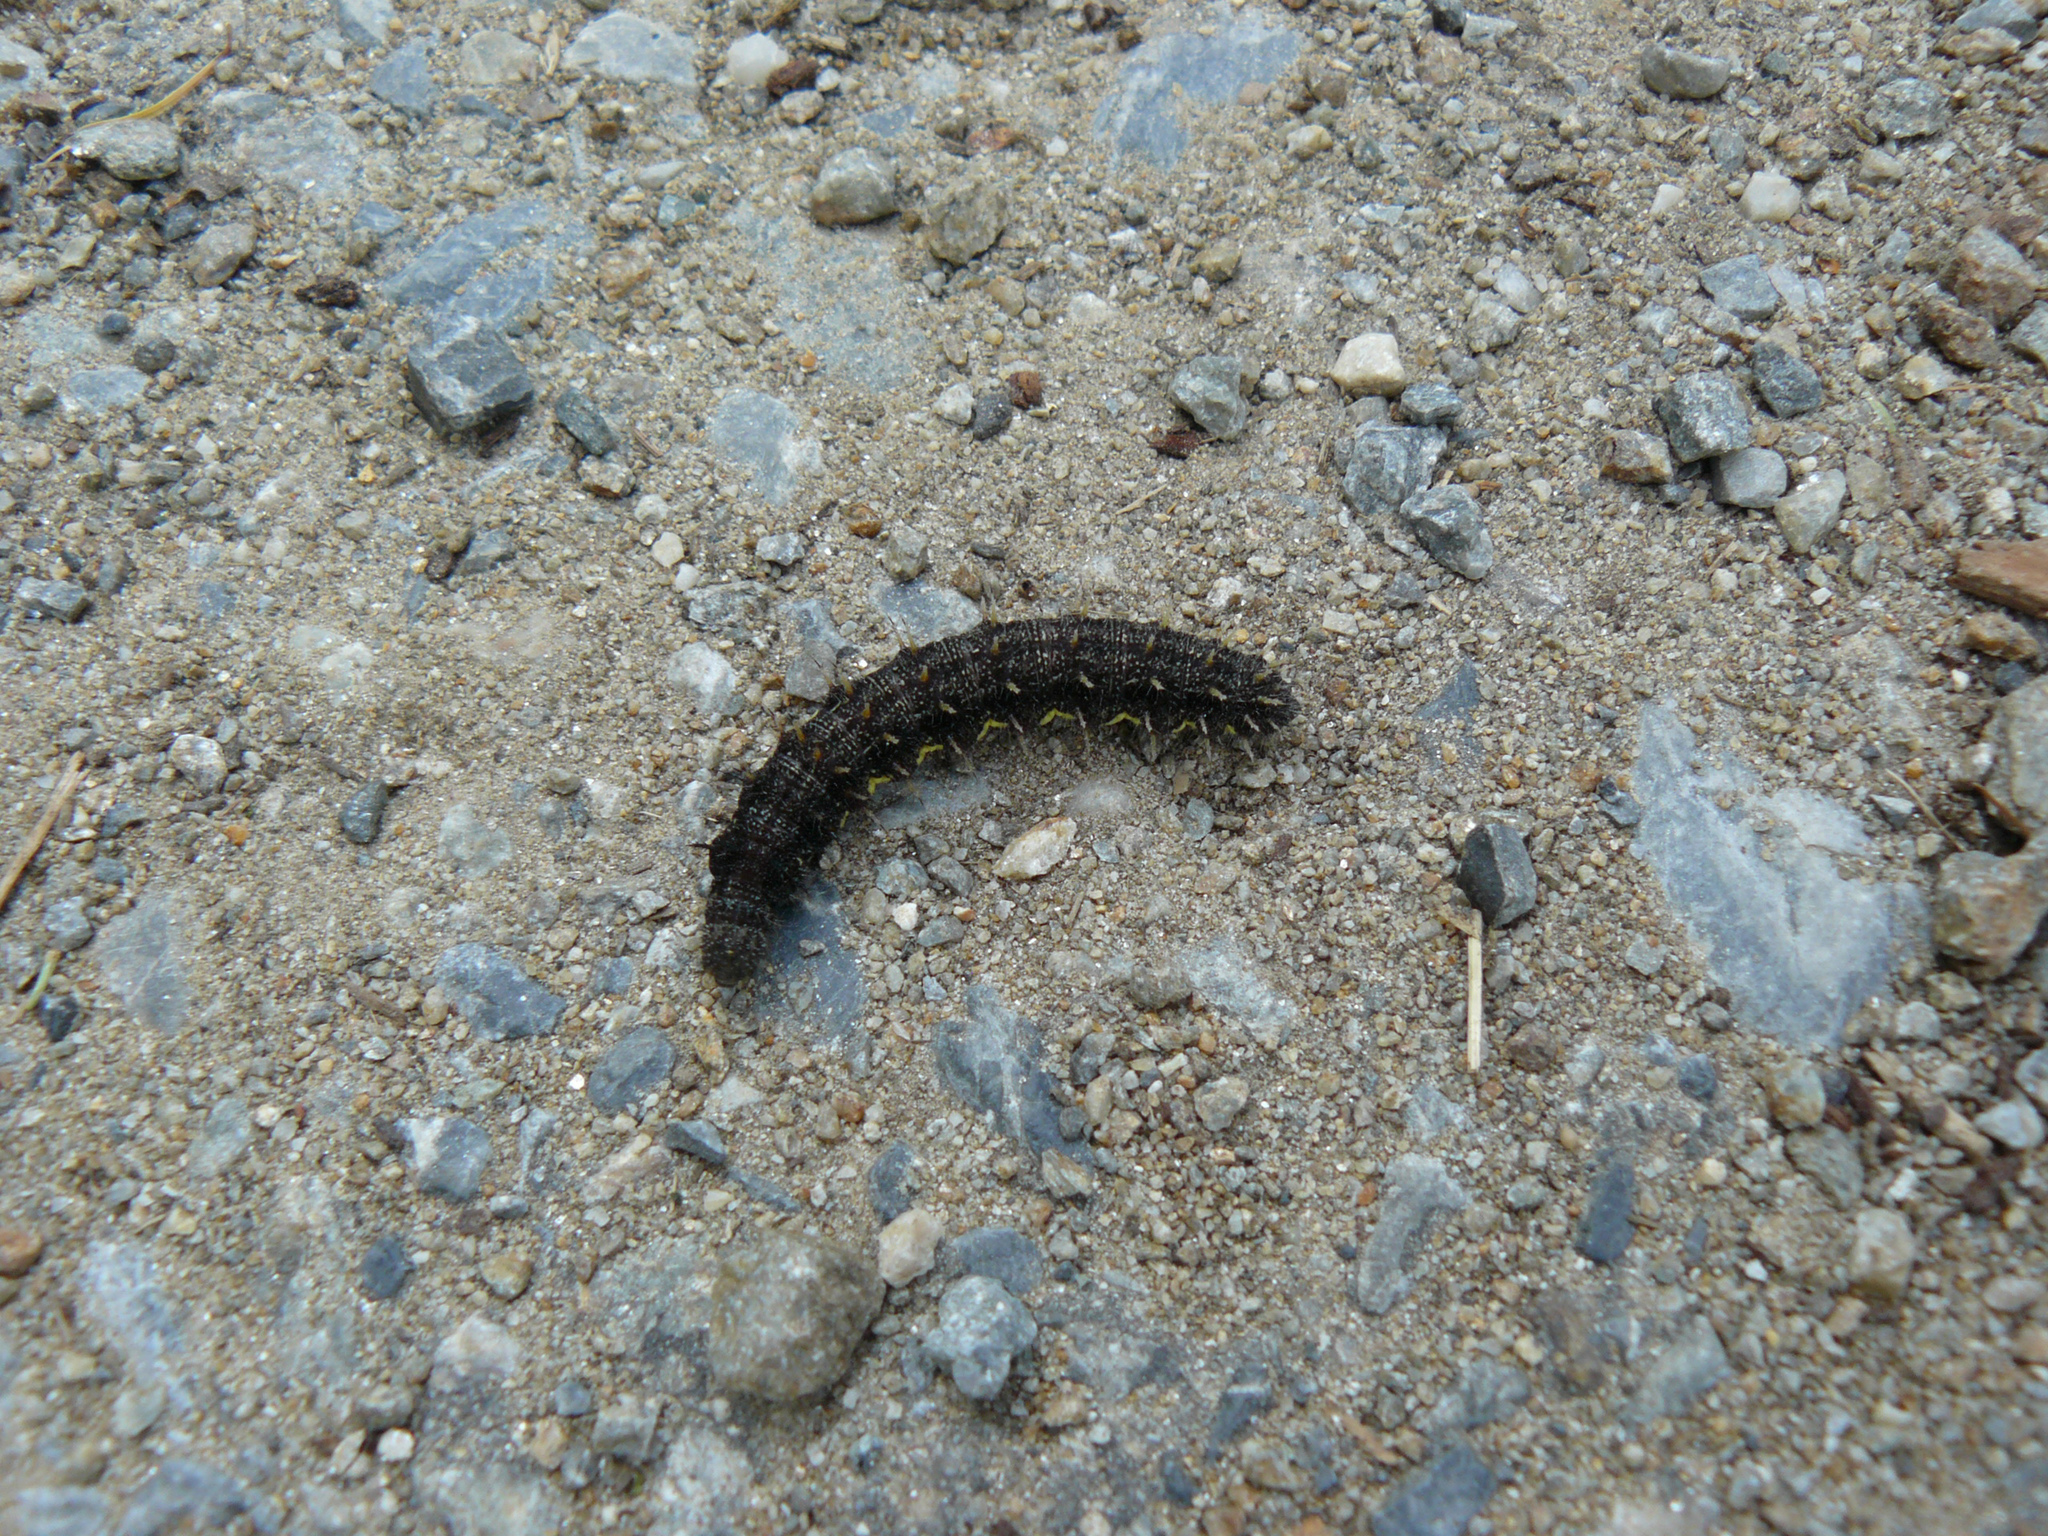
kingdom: Animalia
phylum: Arthropoda
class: Insecta
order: Lepidoptera
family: Nymphalidae
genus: Vanessa
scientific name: Vanessa atalanta
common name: Red admiral
